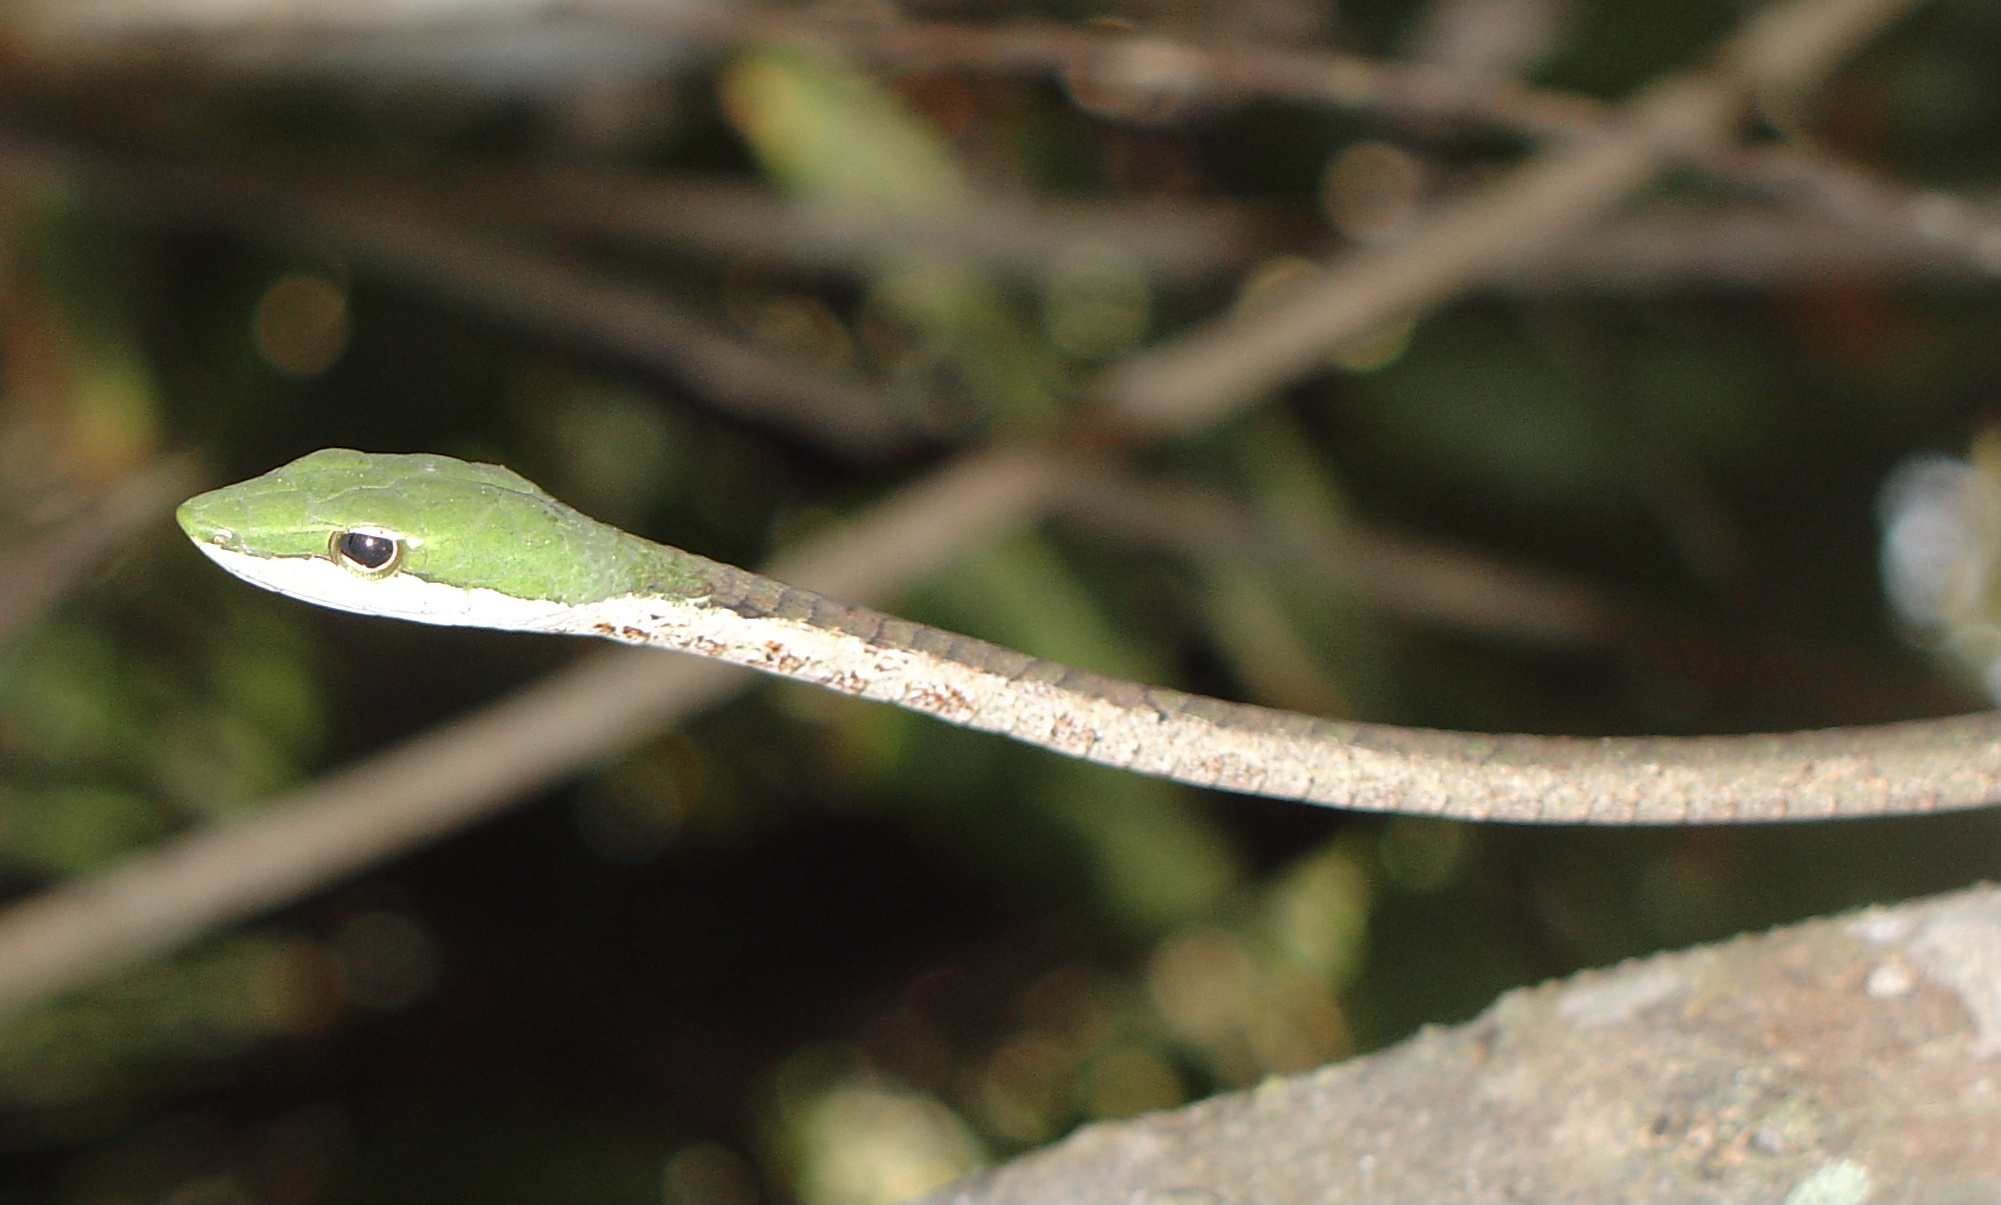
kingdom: Animalia
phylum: Chordata
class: Squamata
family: Colubridae
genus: Thelotornis
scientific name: Thelotornis kirtlandii
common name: Bird snake
